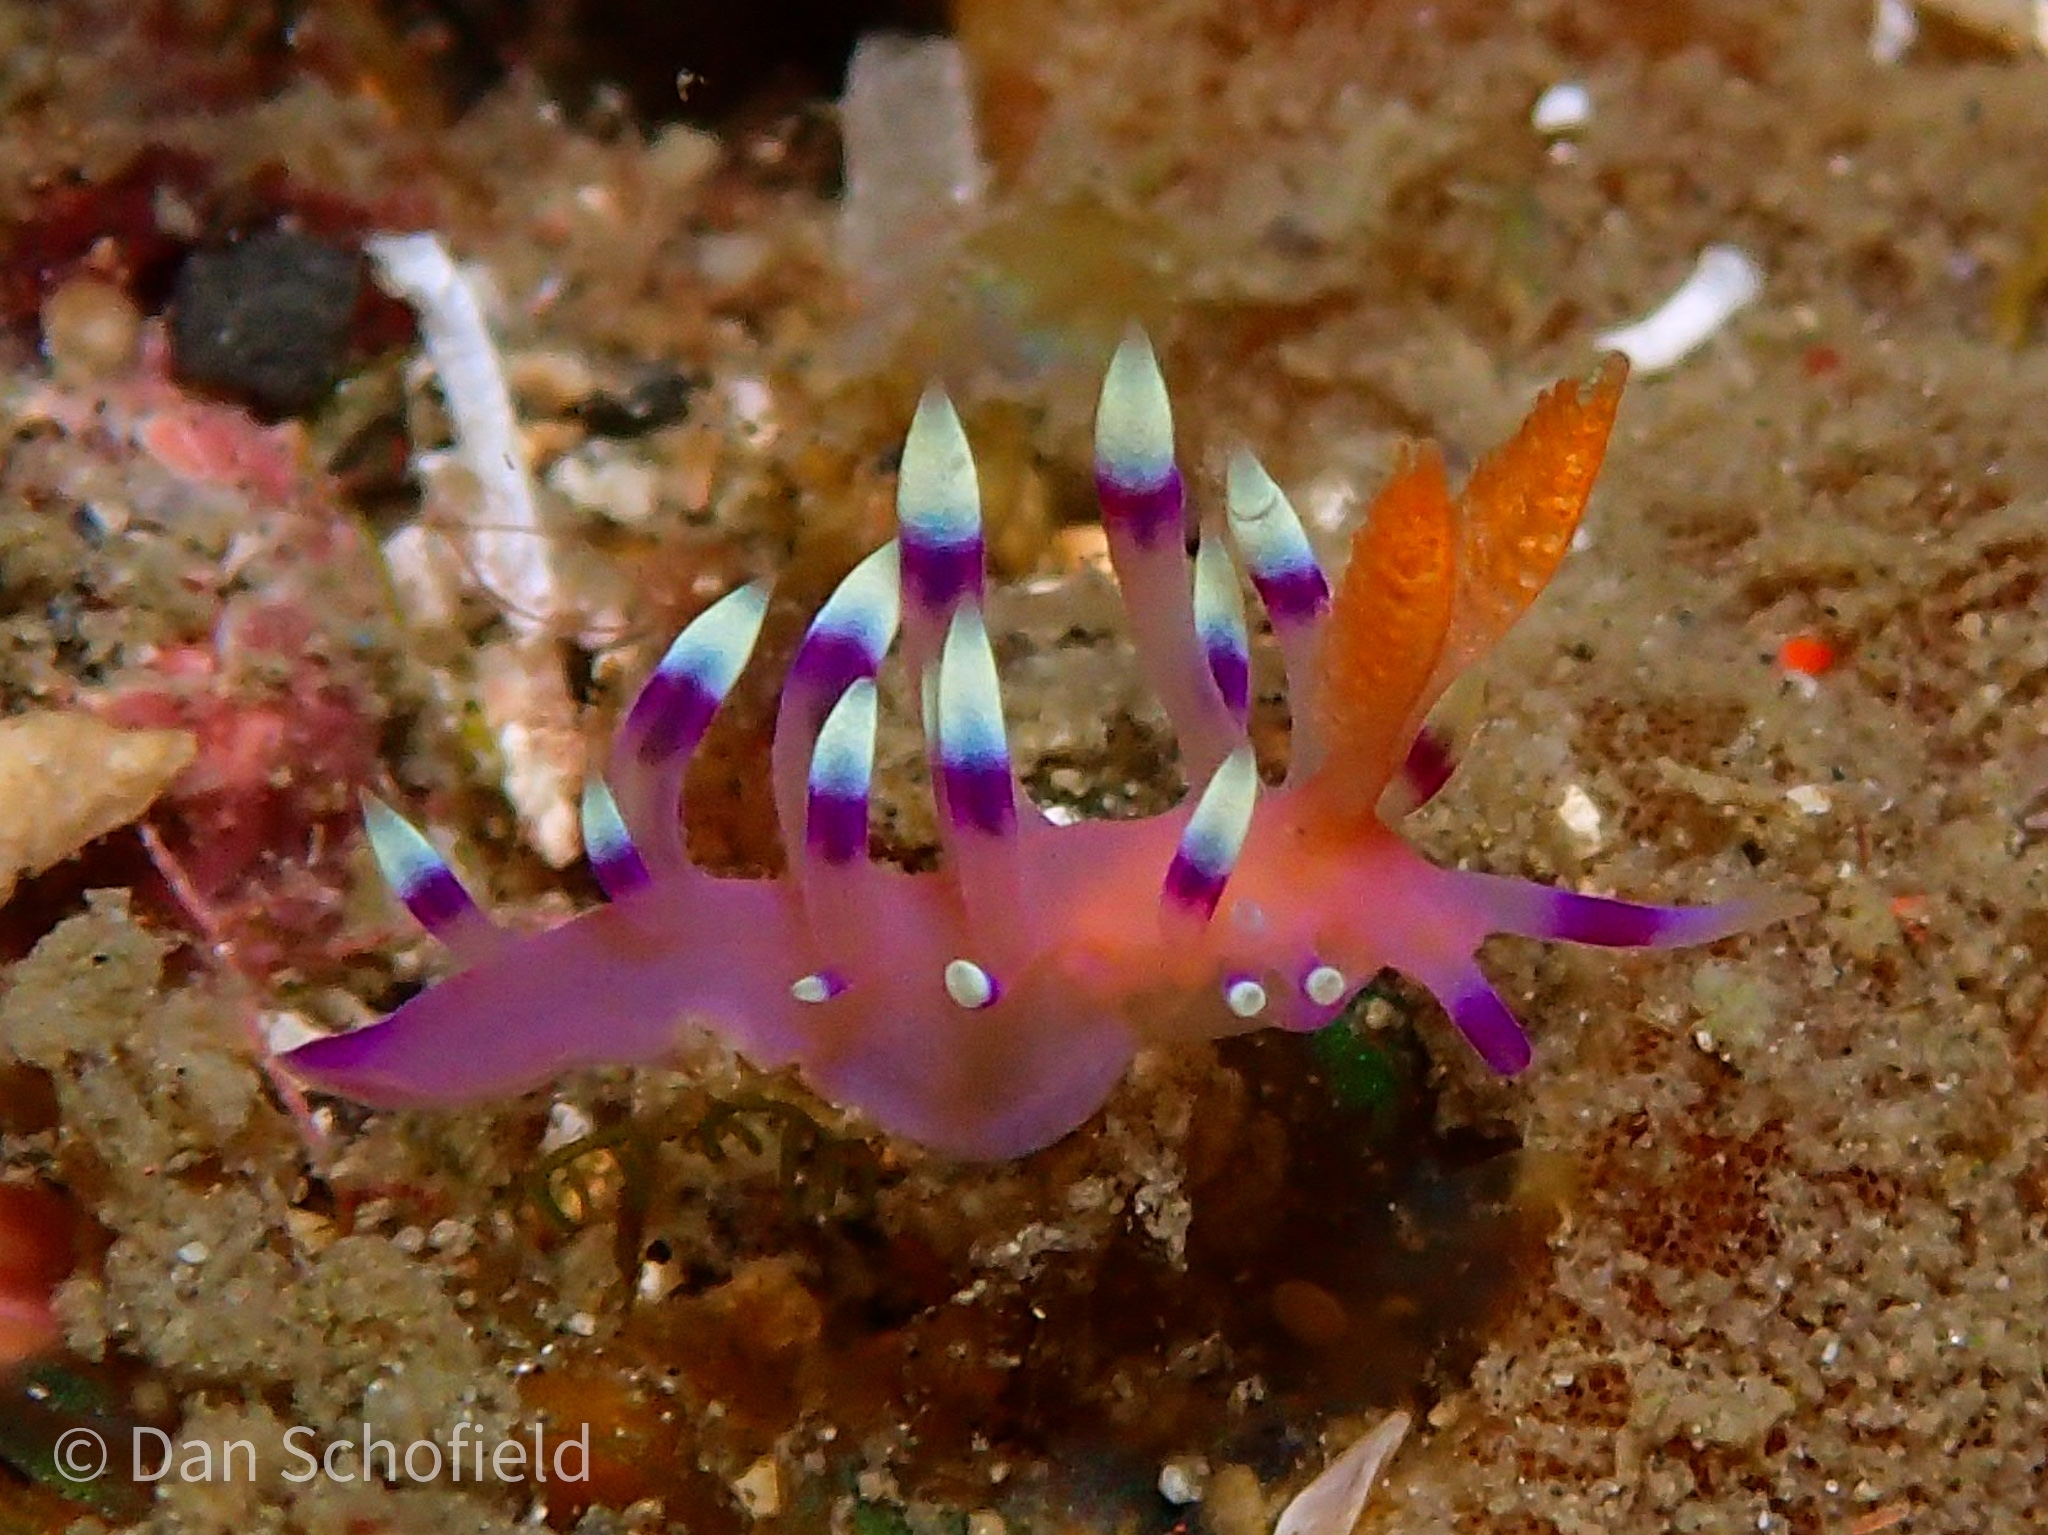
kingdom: Animalia
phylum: Mollusca
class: Gastropoda
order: Nudibranchia
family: Flabellinidae
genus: Coryphellina
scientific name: Coryphellina exoptata
